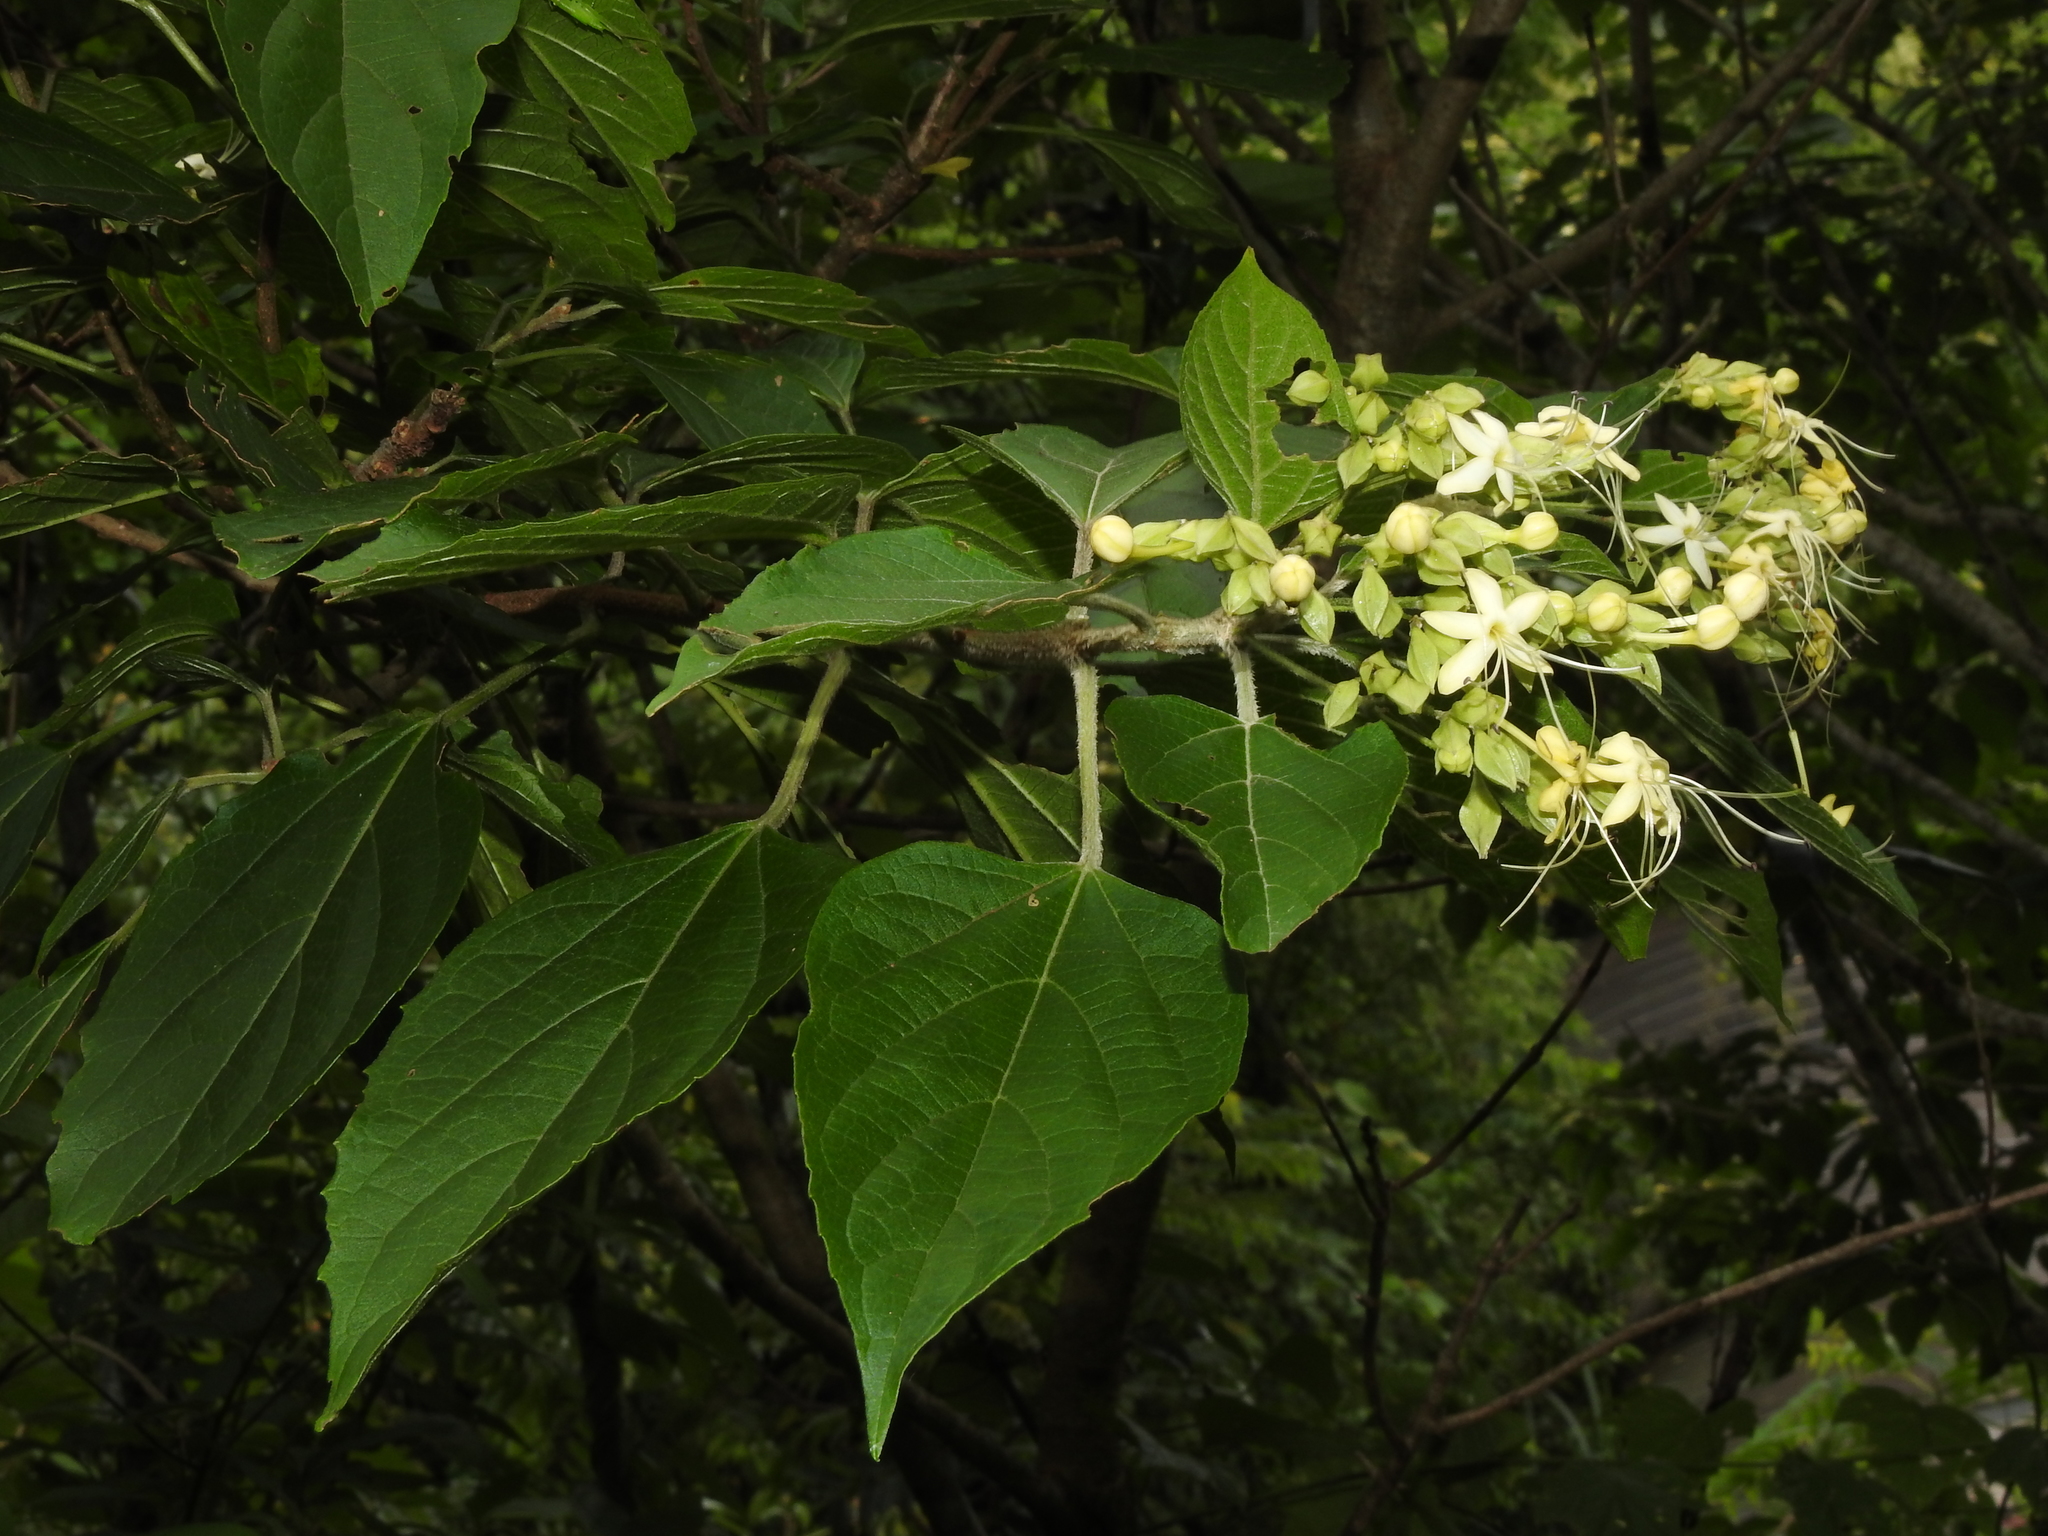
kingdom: Plantae
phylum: Tracheophyta
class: Magnoliopsida
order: Lamiales
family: Lamiaceae
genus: Clerodendrum
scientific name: Clerodendrum trichotomum
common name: Harlequin glorybower
